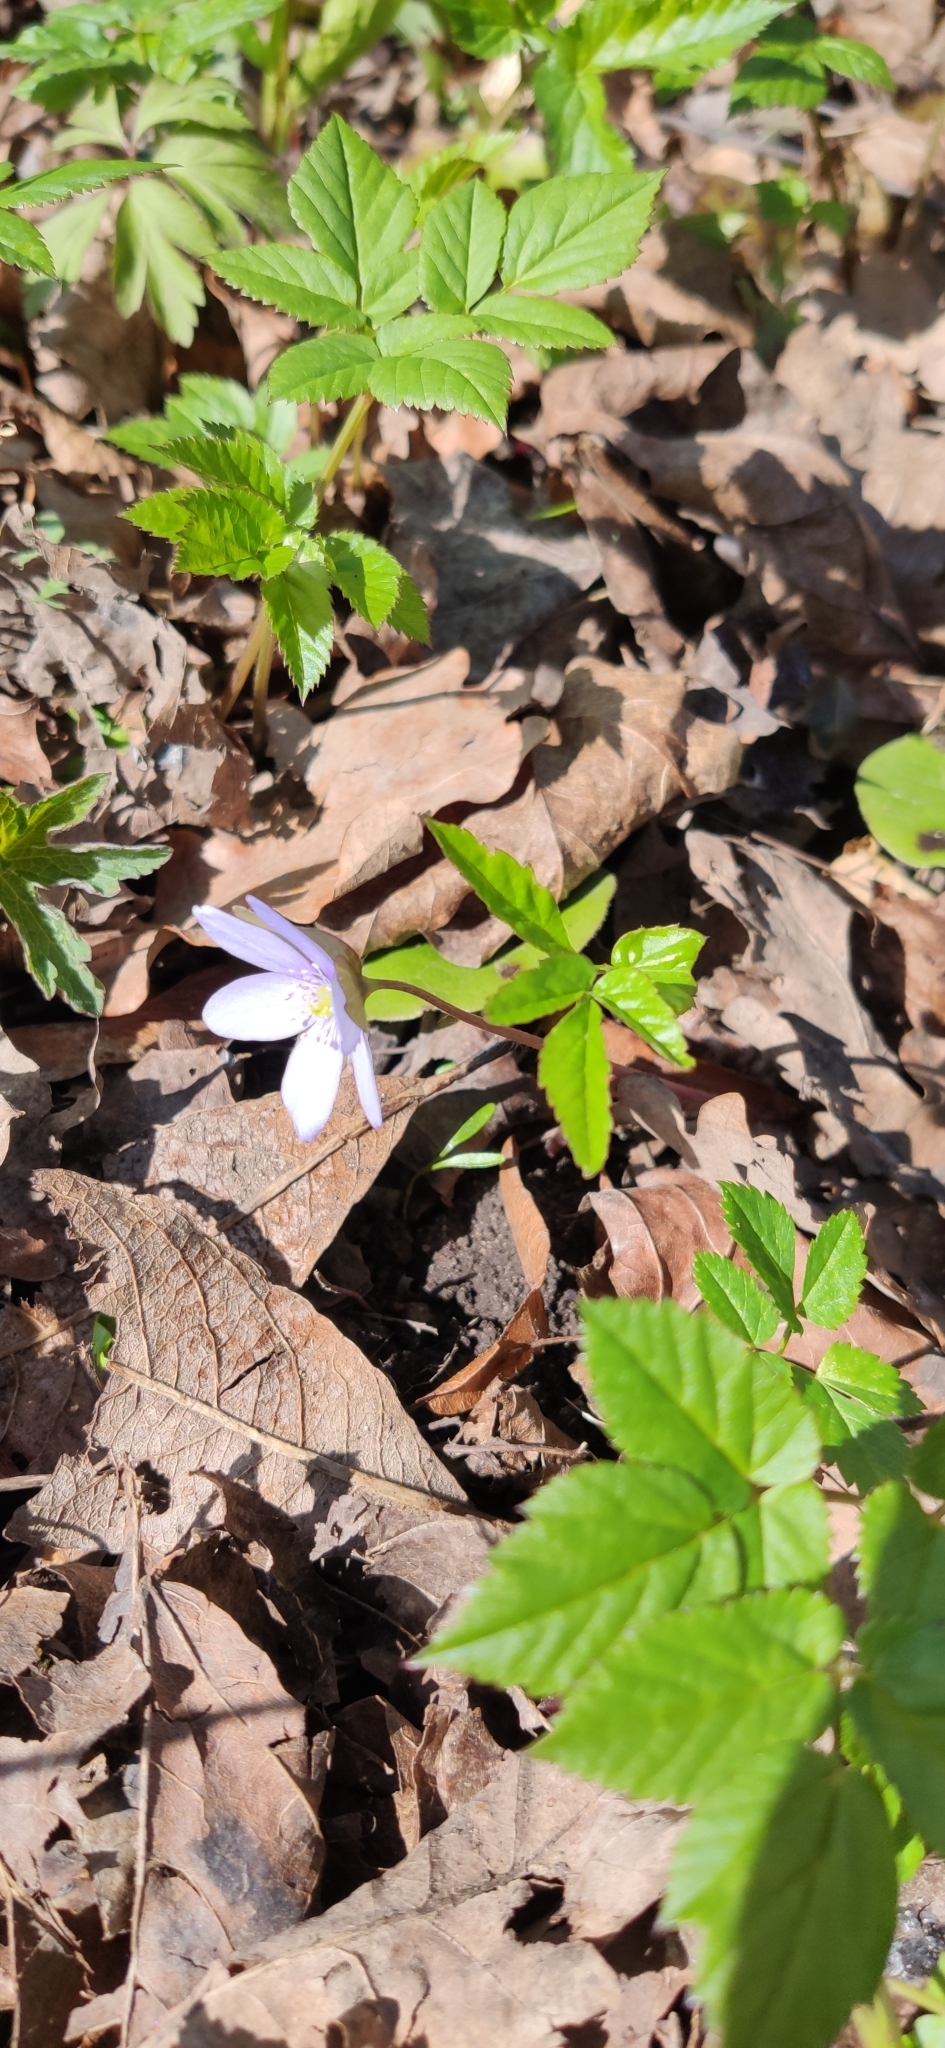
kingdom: Plantae
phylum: Tracheophyta
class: Magnoliopsida
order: Ranunculales
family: Ranunculaceae
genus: Hepatica
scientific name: Hepatica nobilis
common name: Liverleaf
